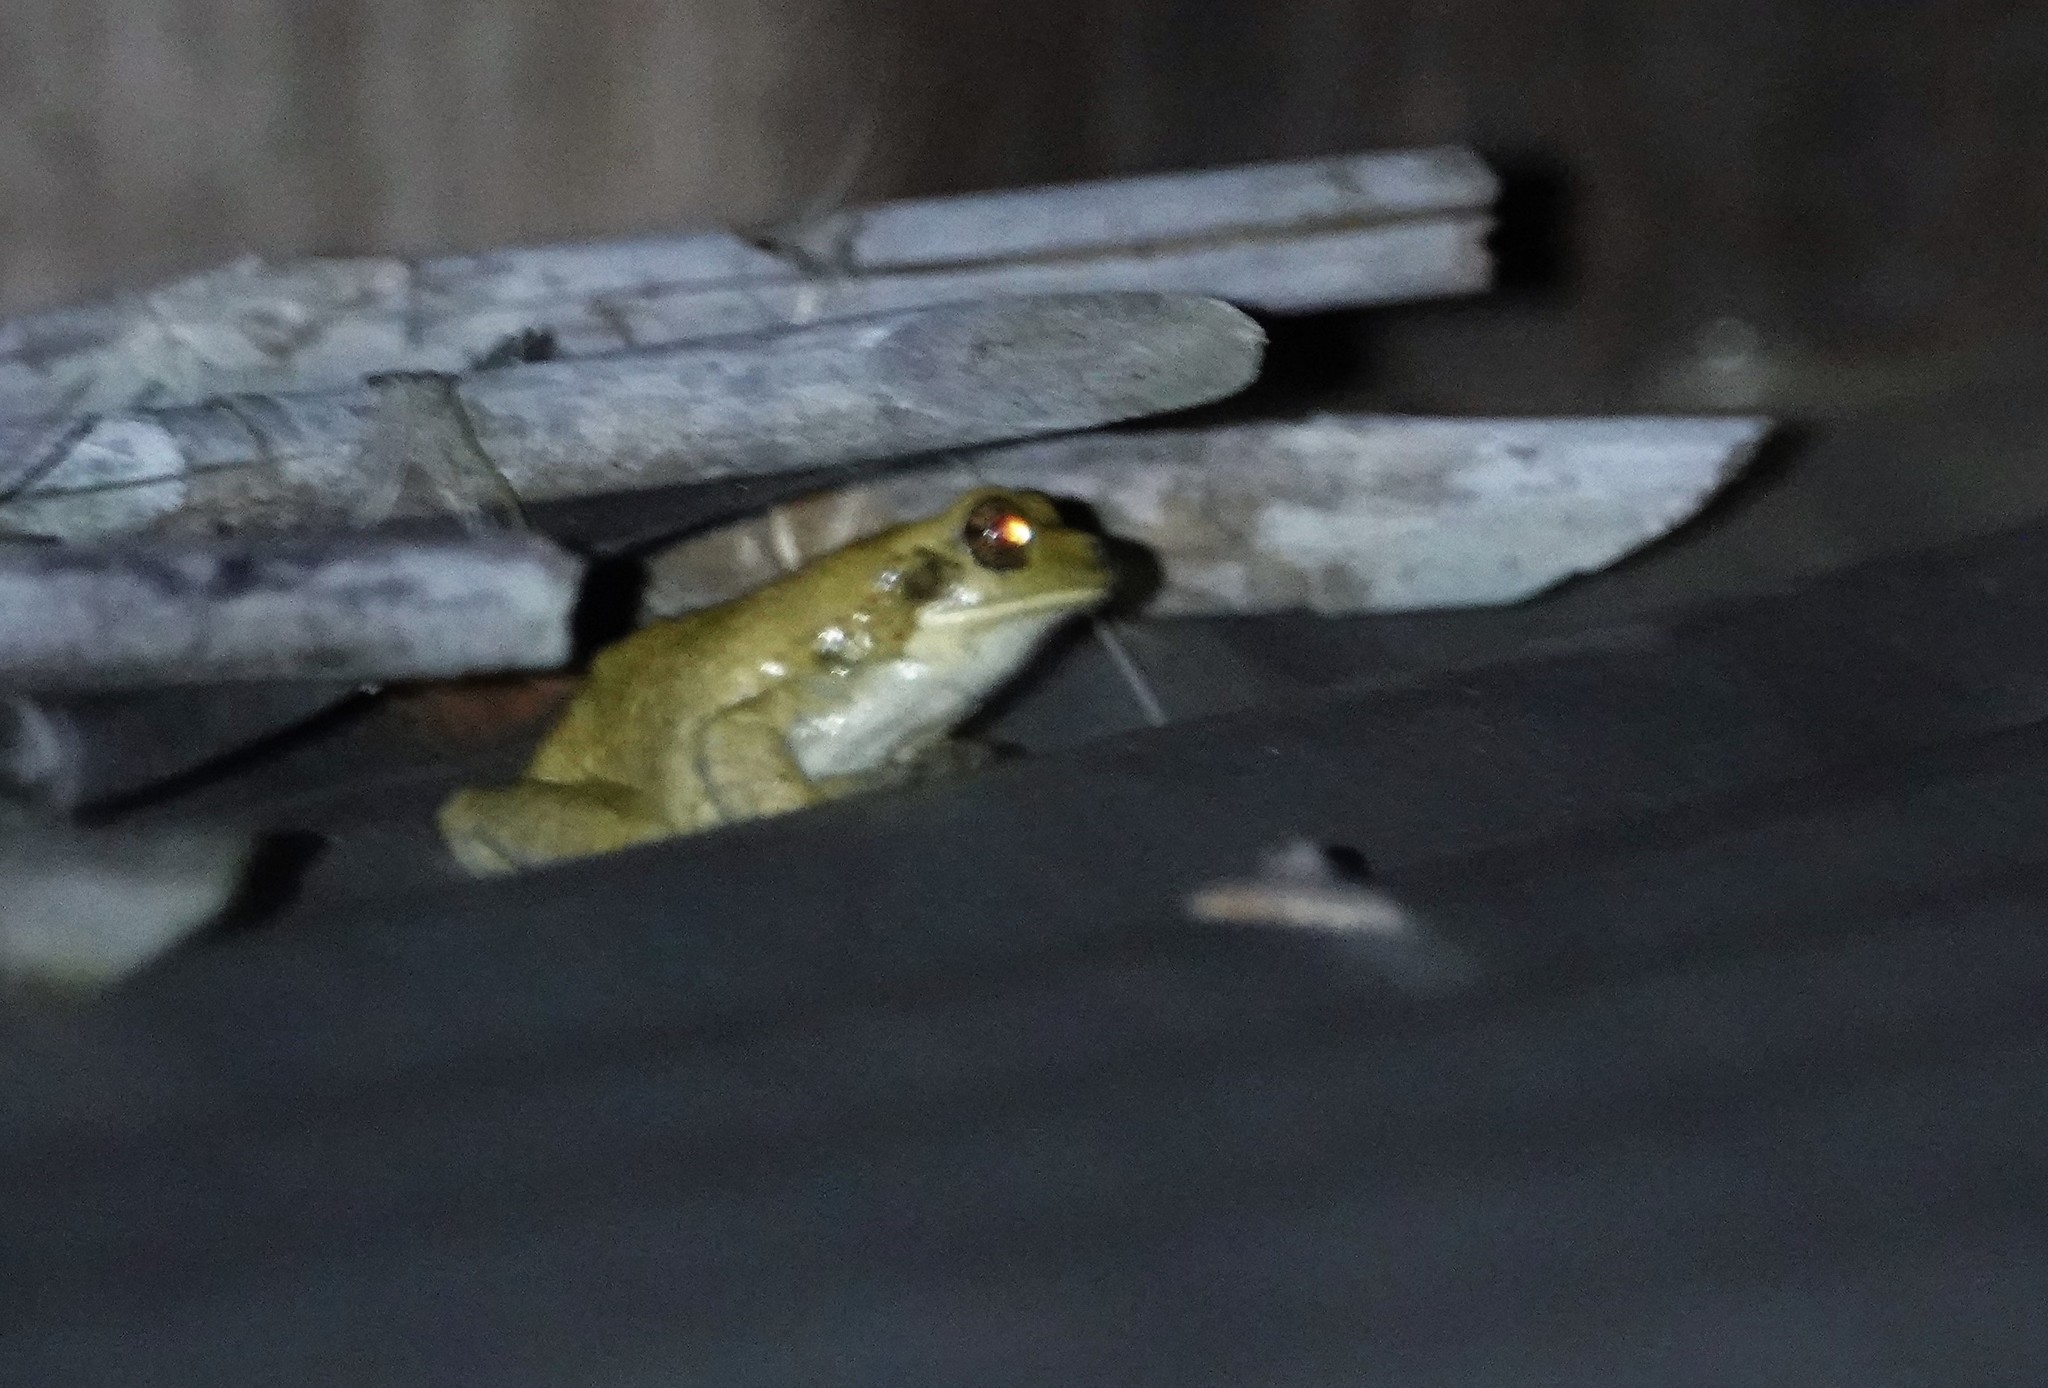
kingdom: Animalia
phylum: Chordata
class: Amphibia
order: Anura
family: Hylidae
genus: Trachycephalus
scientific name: Trachycephalus typhonius
